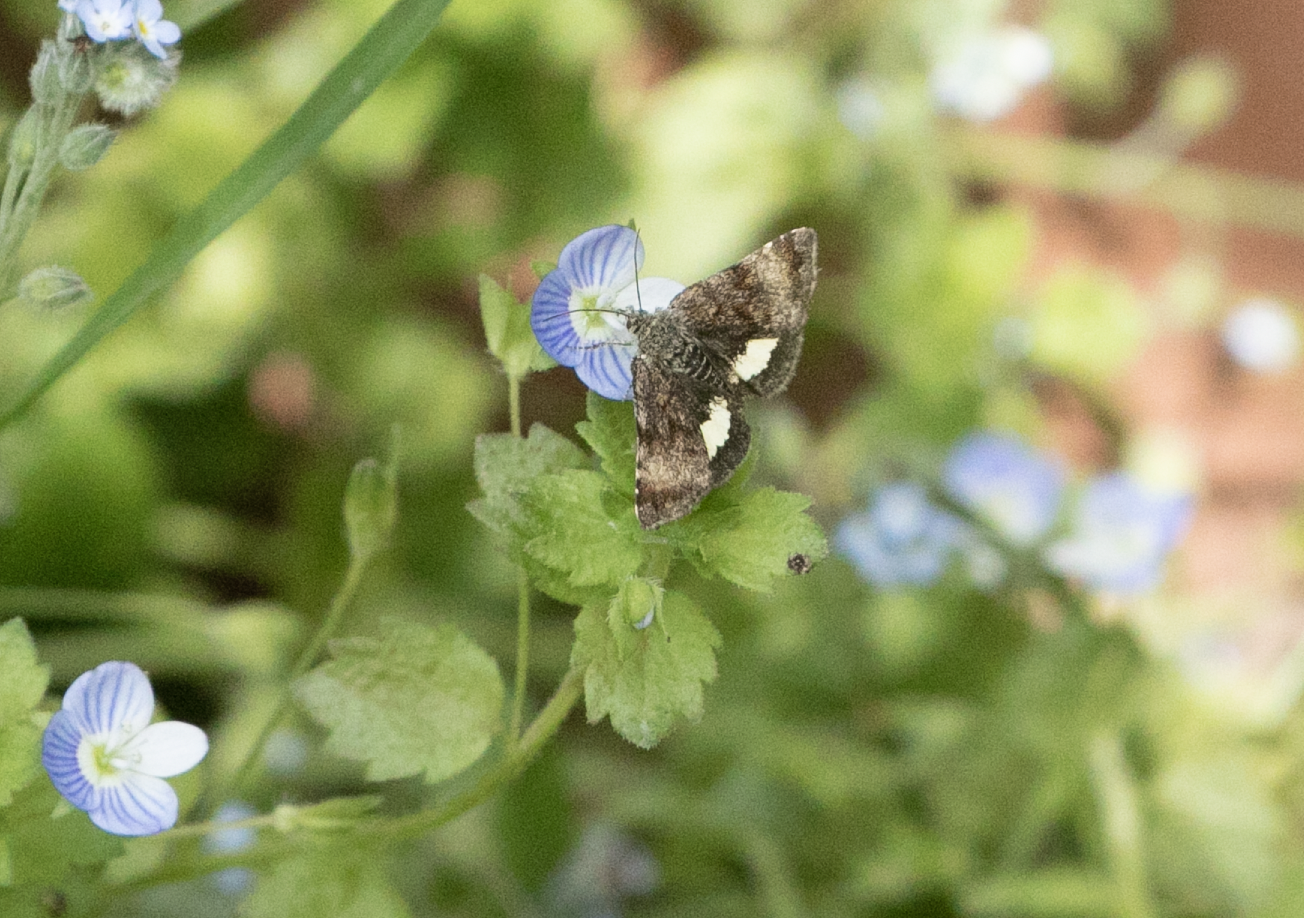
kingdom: Animalia
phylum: Arthropoda
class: Insecta
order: Lepidoptera
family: Noctuidae
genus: Panemeria
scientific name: Panemeria tenebrata
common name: Small yellow underwing
